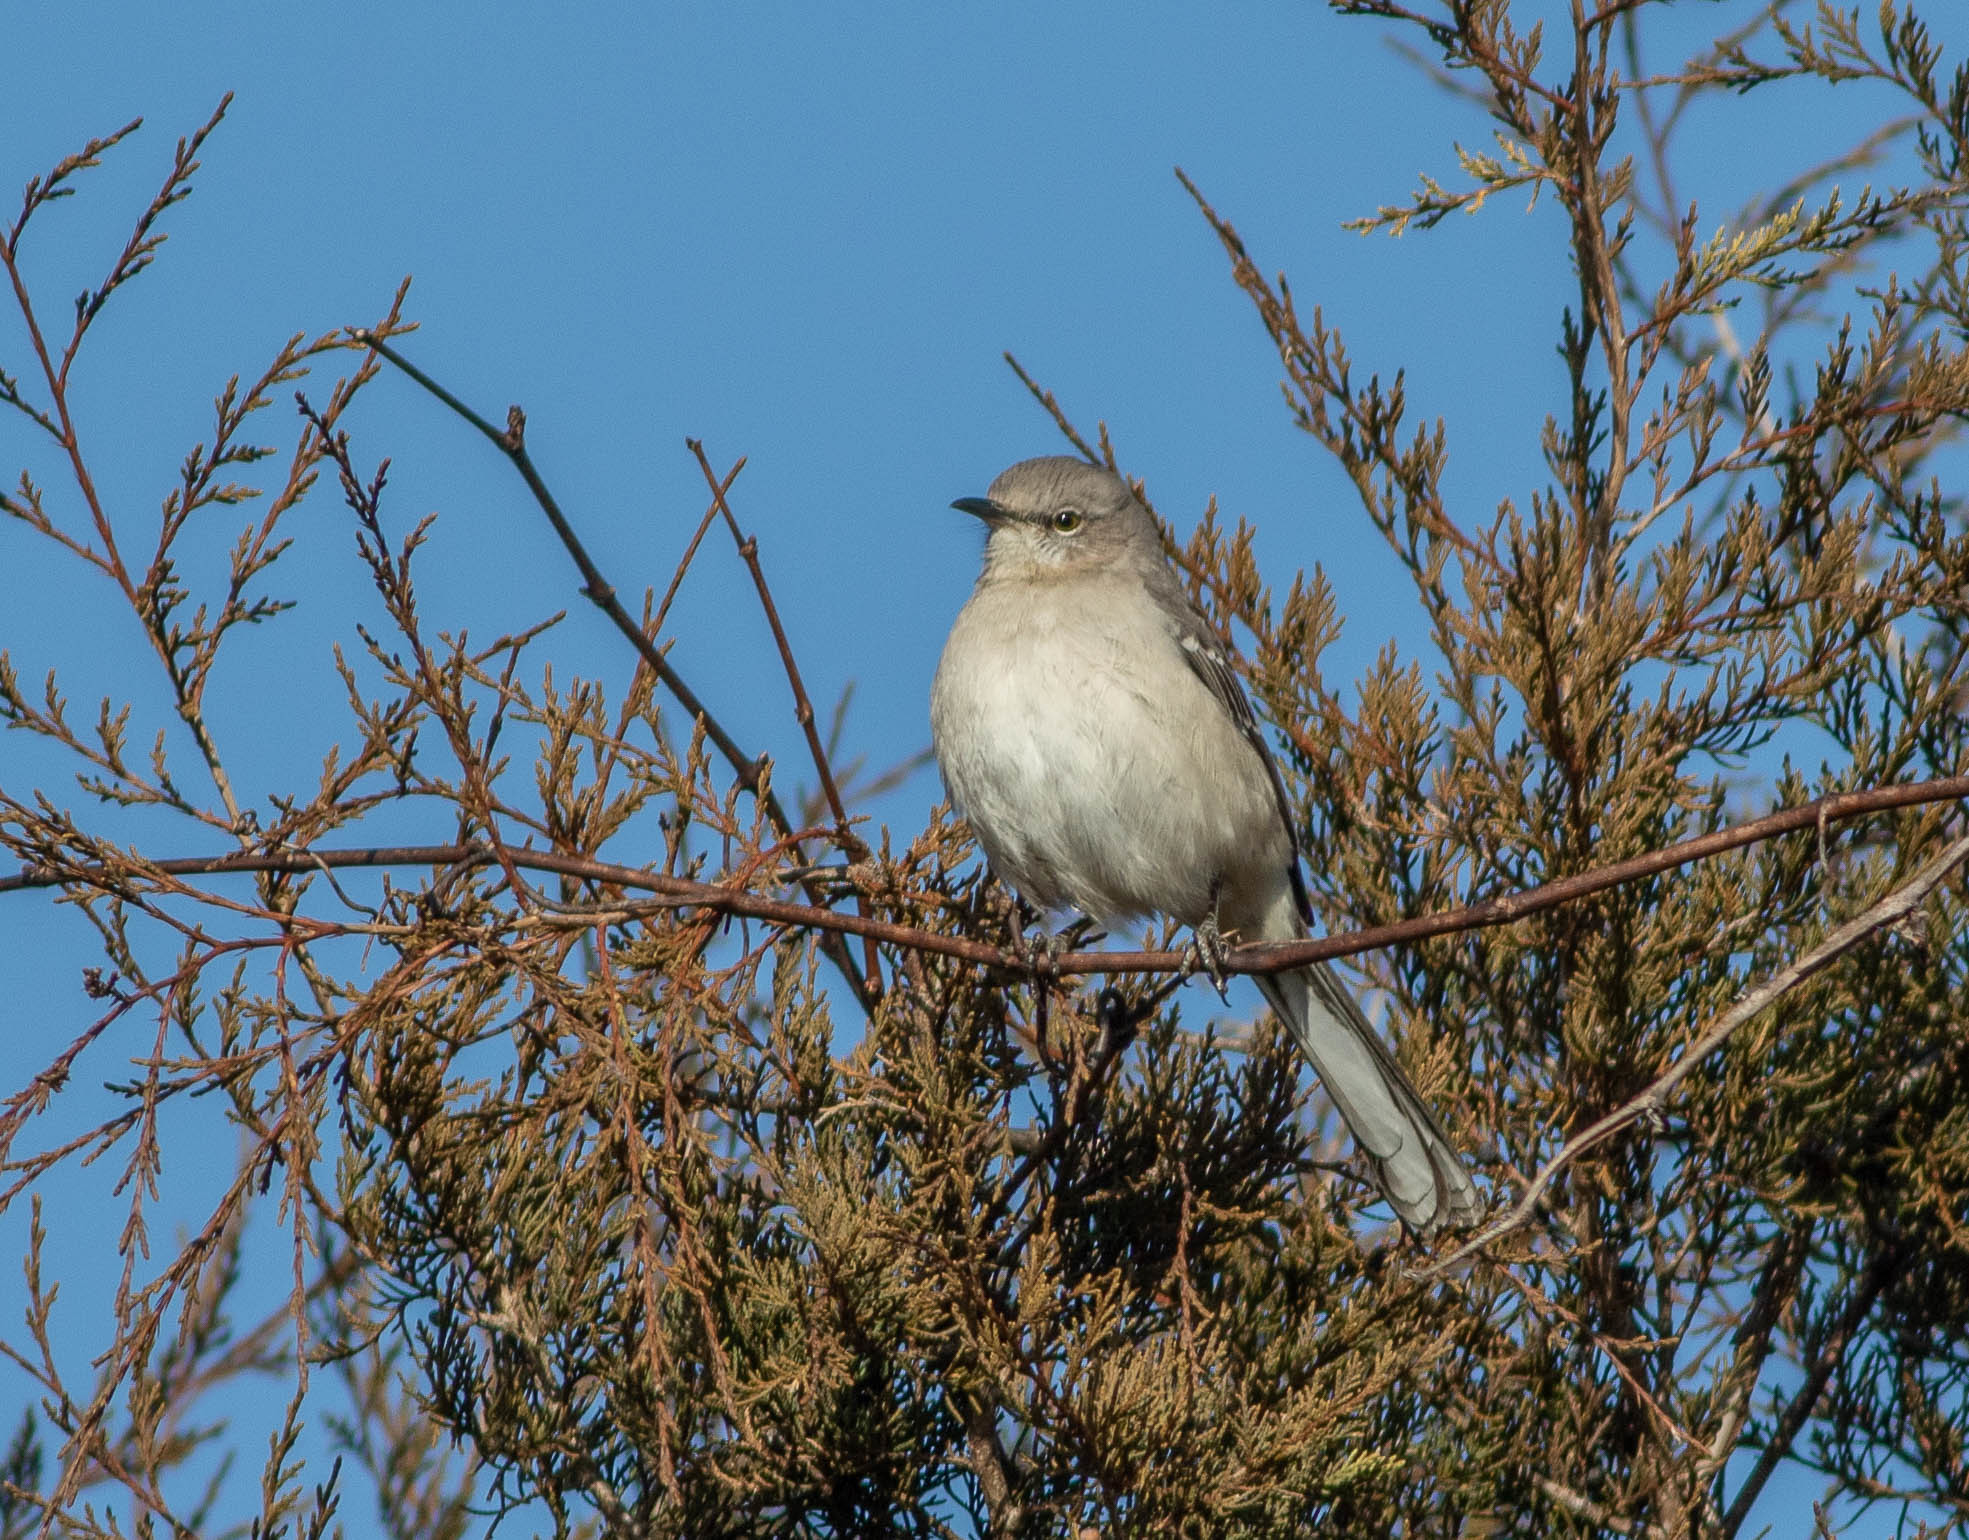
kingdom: Animalia
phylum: Chordata
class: Aves
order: Passeriformes
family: Mimidae
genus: Mimus
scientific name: Mimus polyglottos
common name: Northern mockingbird
